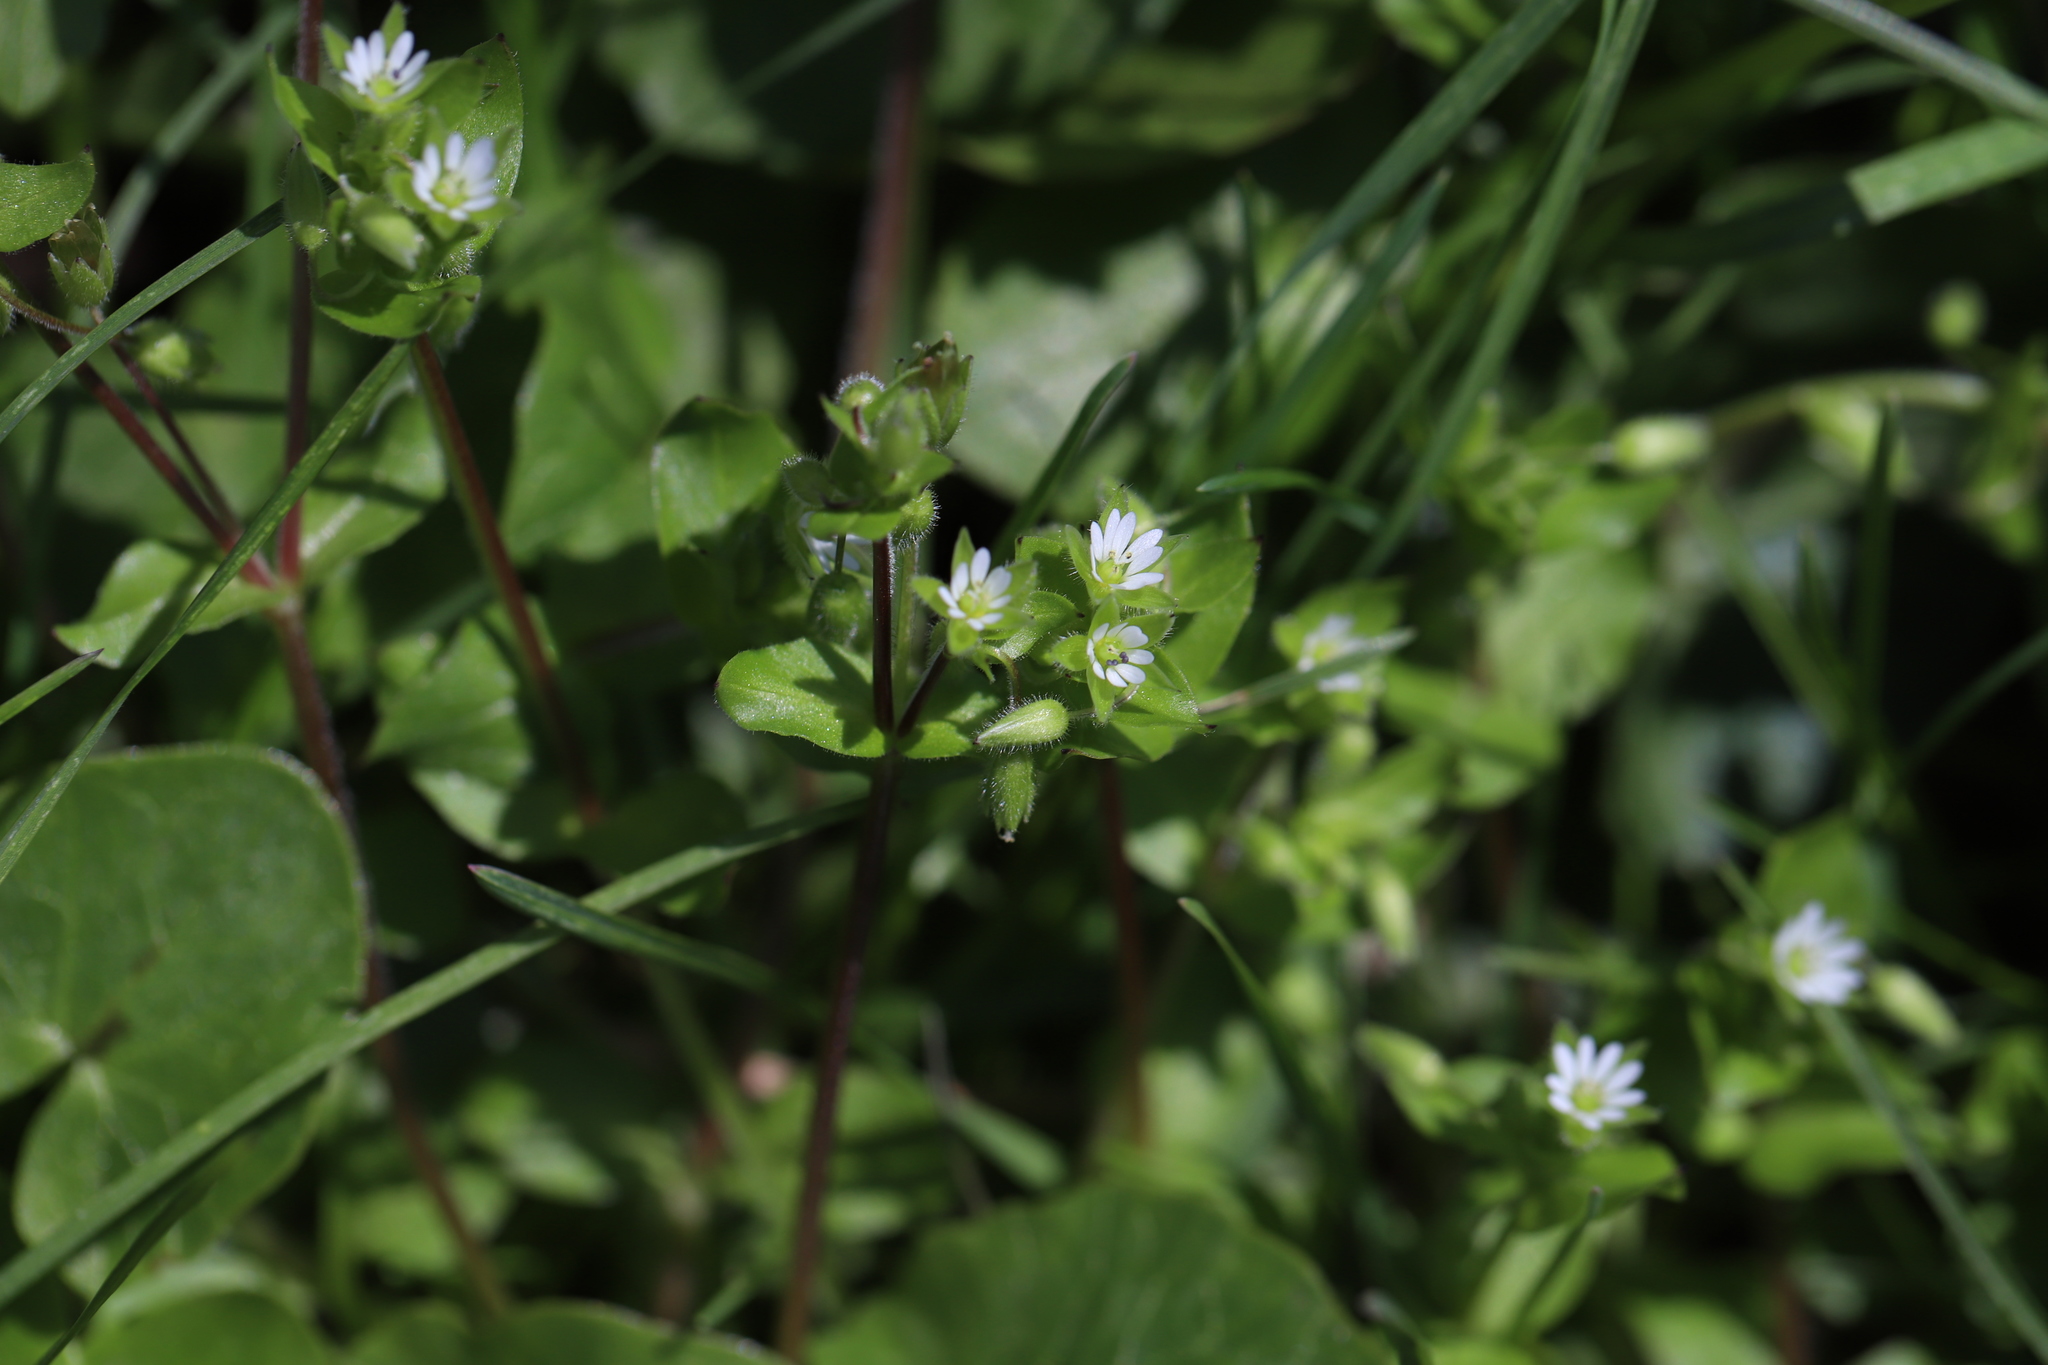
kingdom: Plantae
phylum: Tracheophyta
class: Magnoliopsida
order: Caryophyllales
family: Caryophyllaceae
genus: Stellaria
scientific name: Stellaria media
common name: Common chickweed
